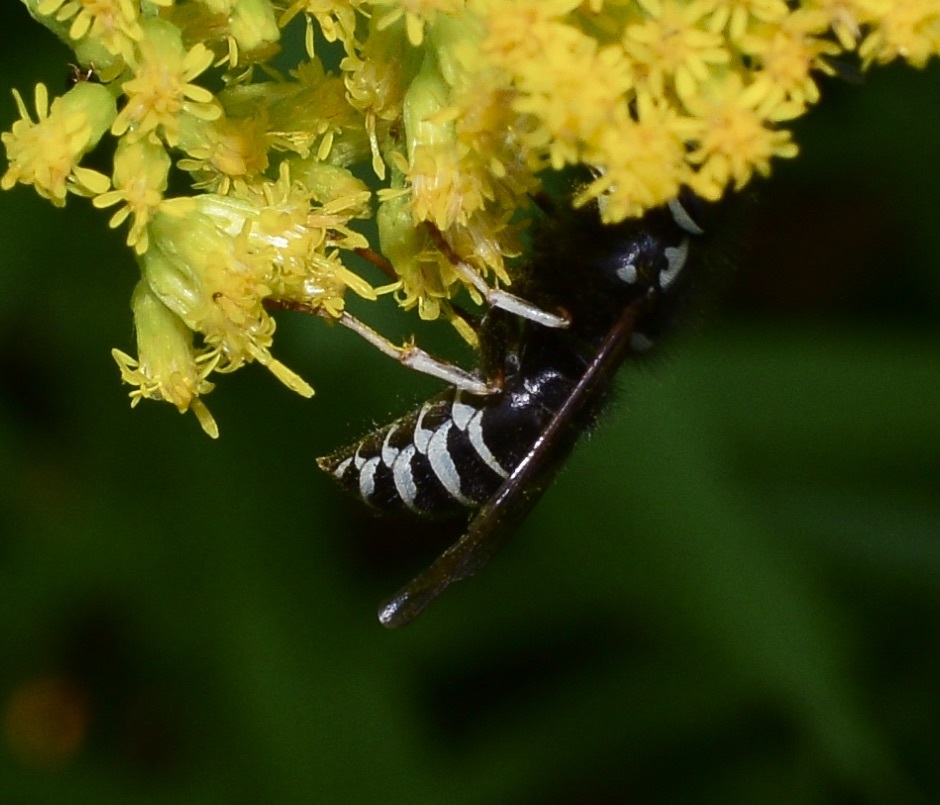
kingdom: Animalia
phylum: Arthropoda
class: Insecta
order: Hymenoptera
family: Vespidae
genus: Vespula
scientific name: Vespula consobrina
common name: Blackjacket
